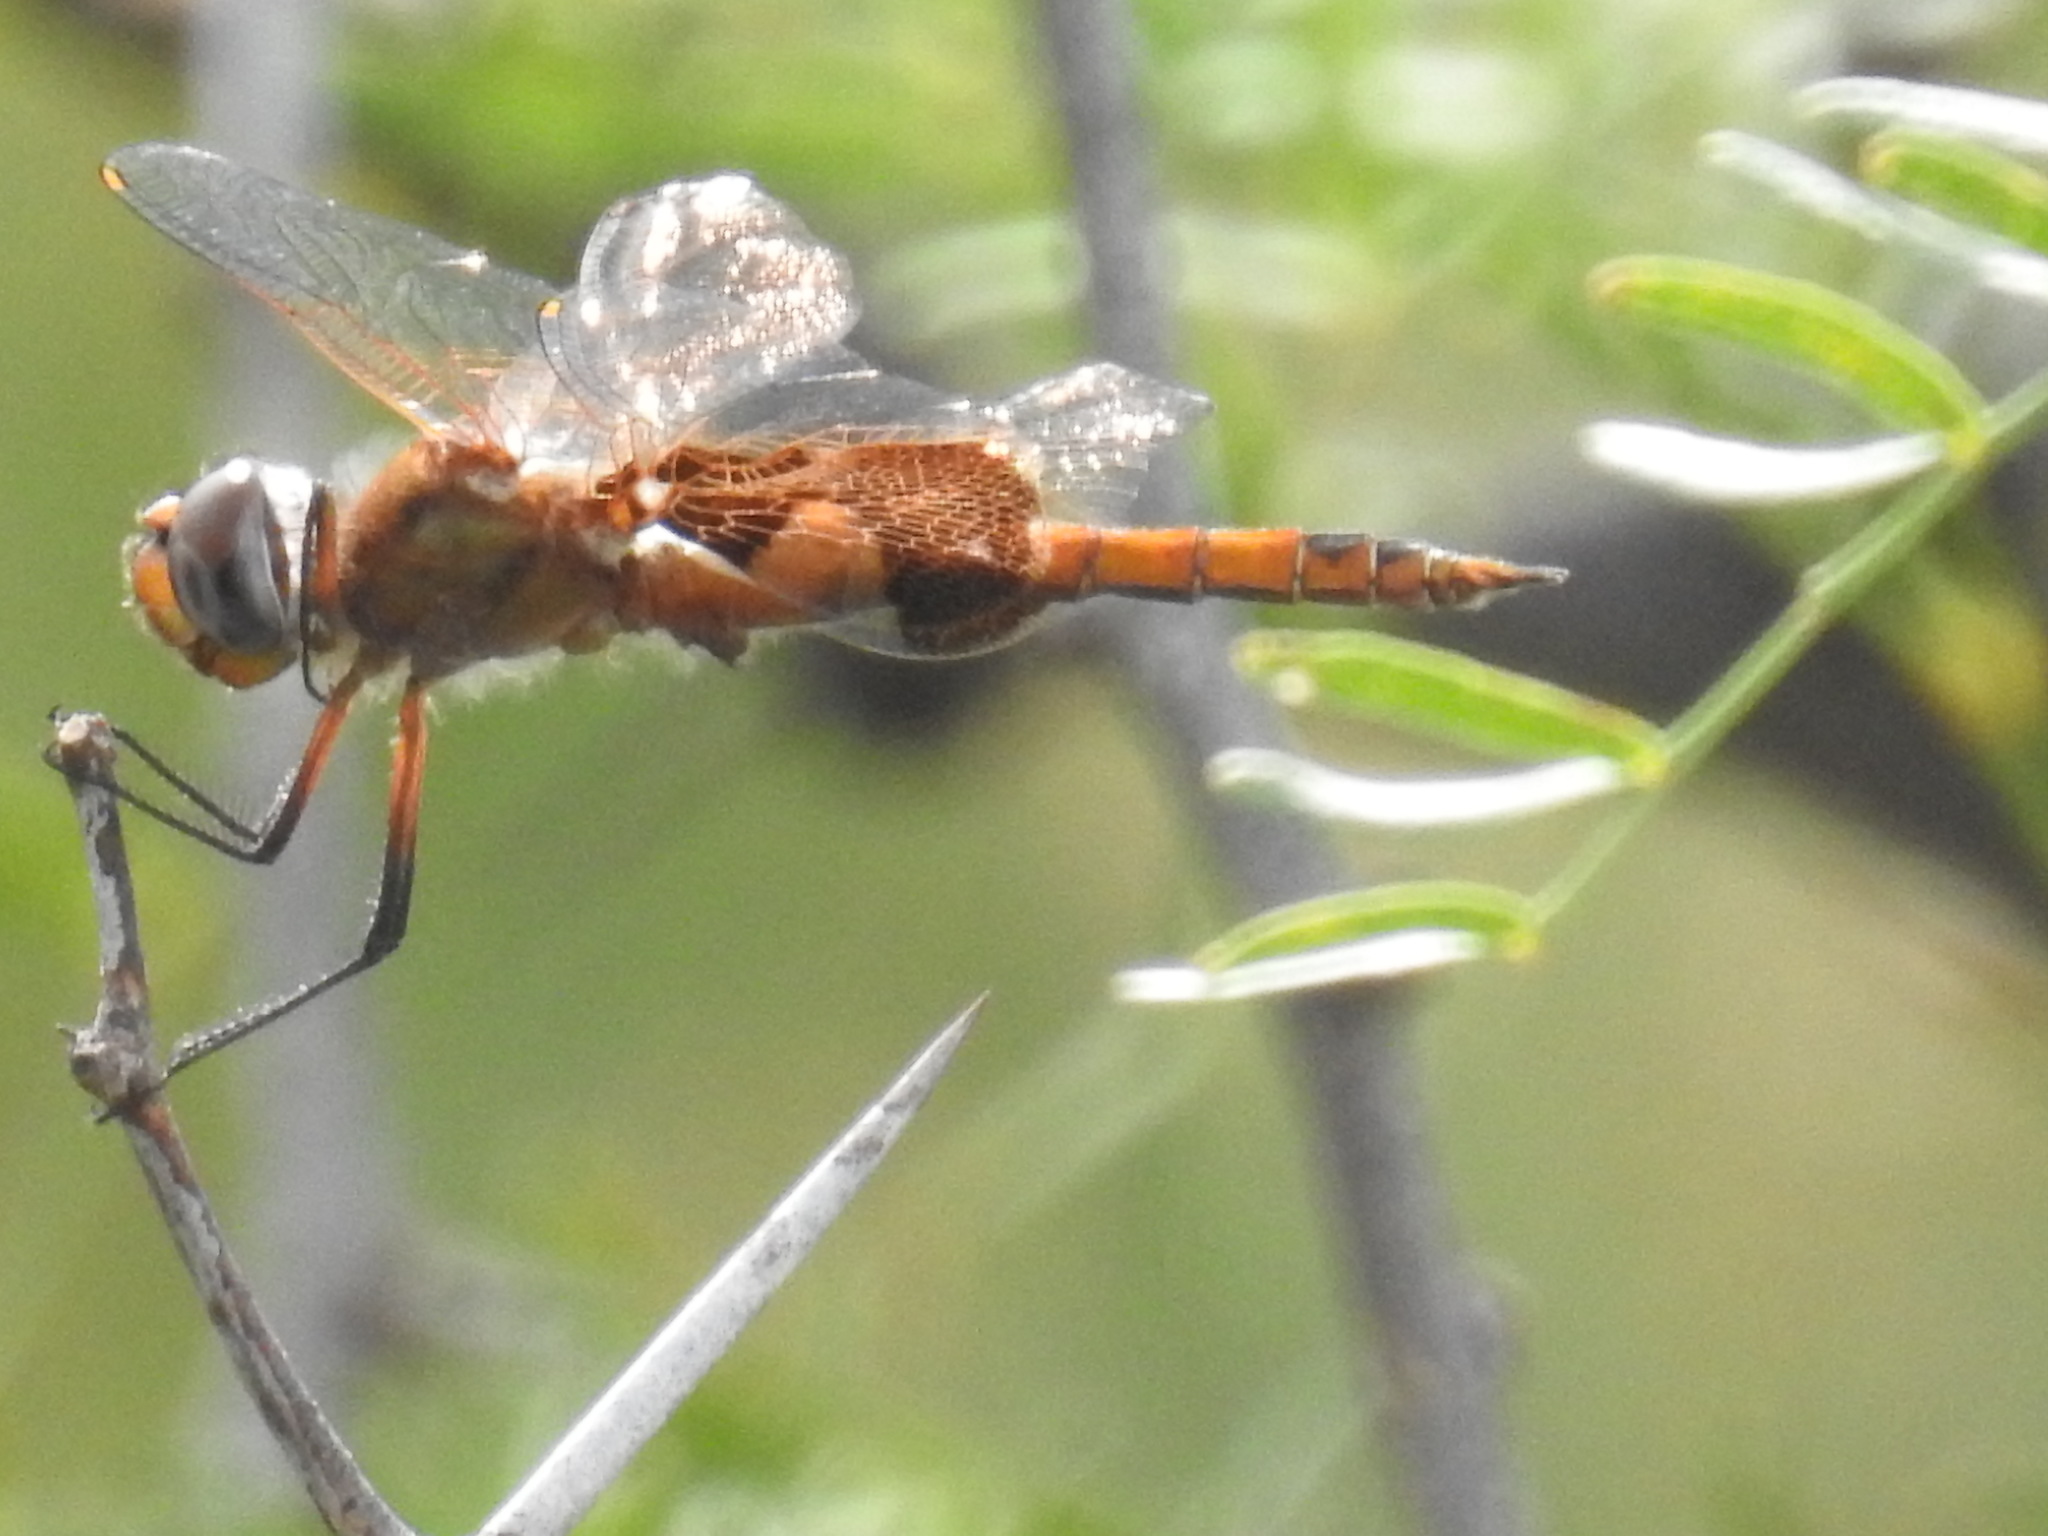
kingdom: Animalia
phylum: Arthropoda
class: Insecta
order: Odonata
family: Libellulidae
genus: Tramea
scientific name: Tramea onusta
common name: Red saddlebags
